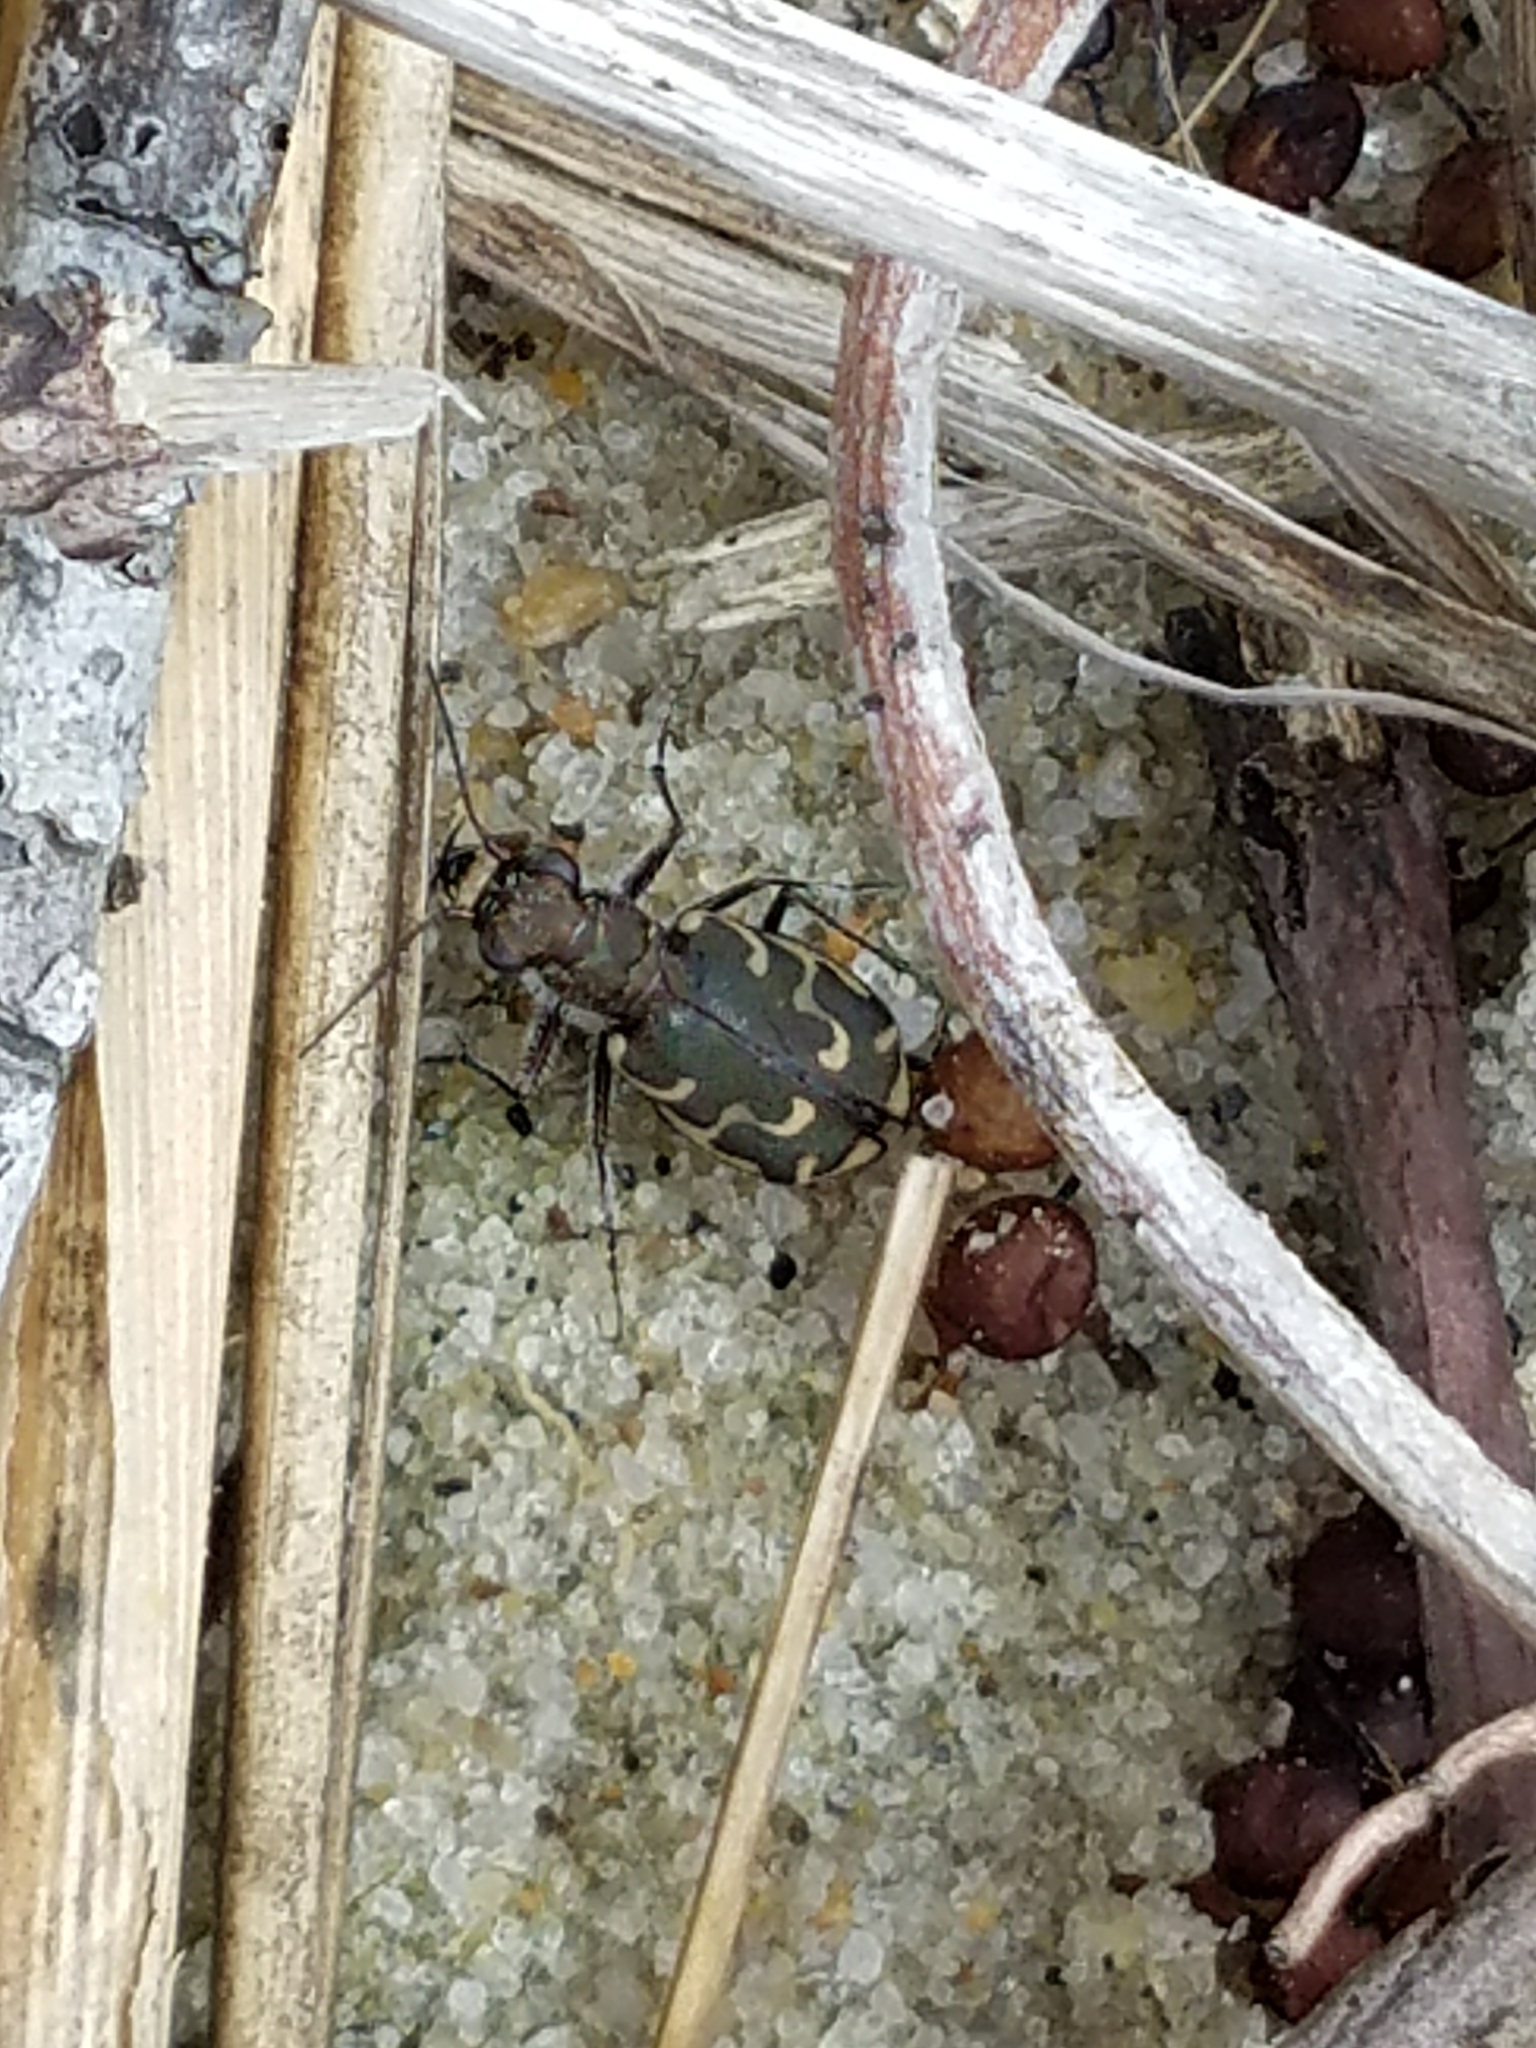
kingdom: Animalia
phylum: Arthropoda
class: Insecta
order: Coleoptera
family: Carabidae
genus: Cicindela
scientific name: Cicindela repanda
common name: Bronzed tiger beetle
